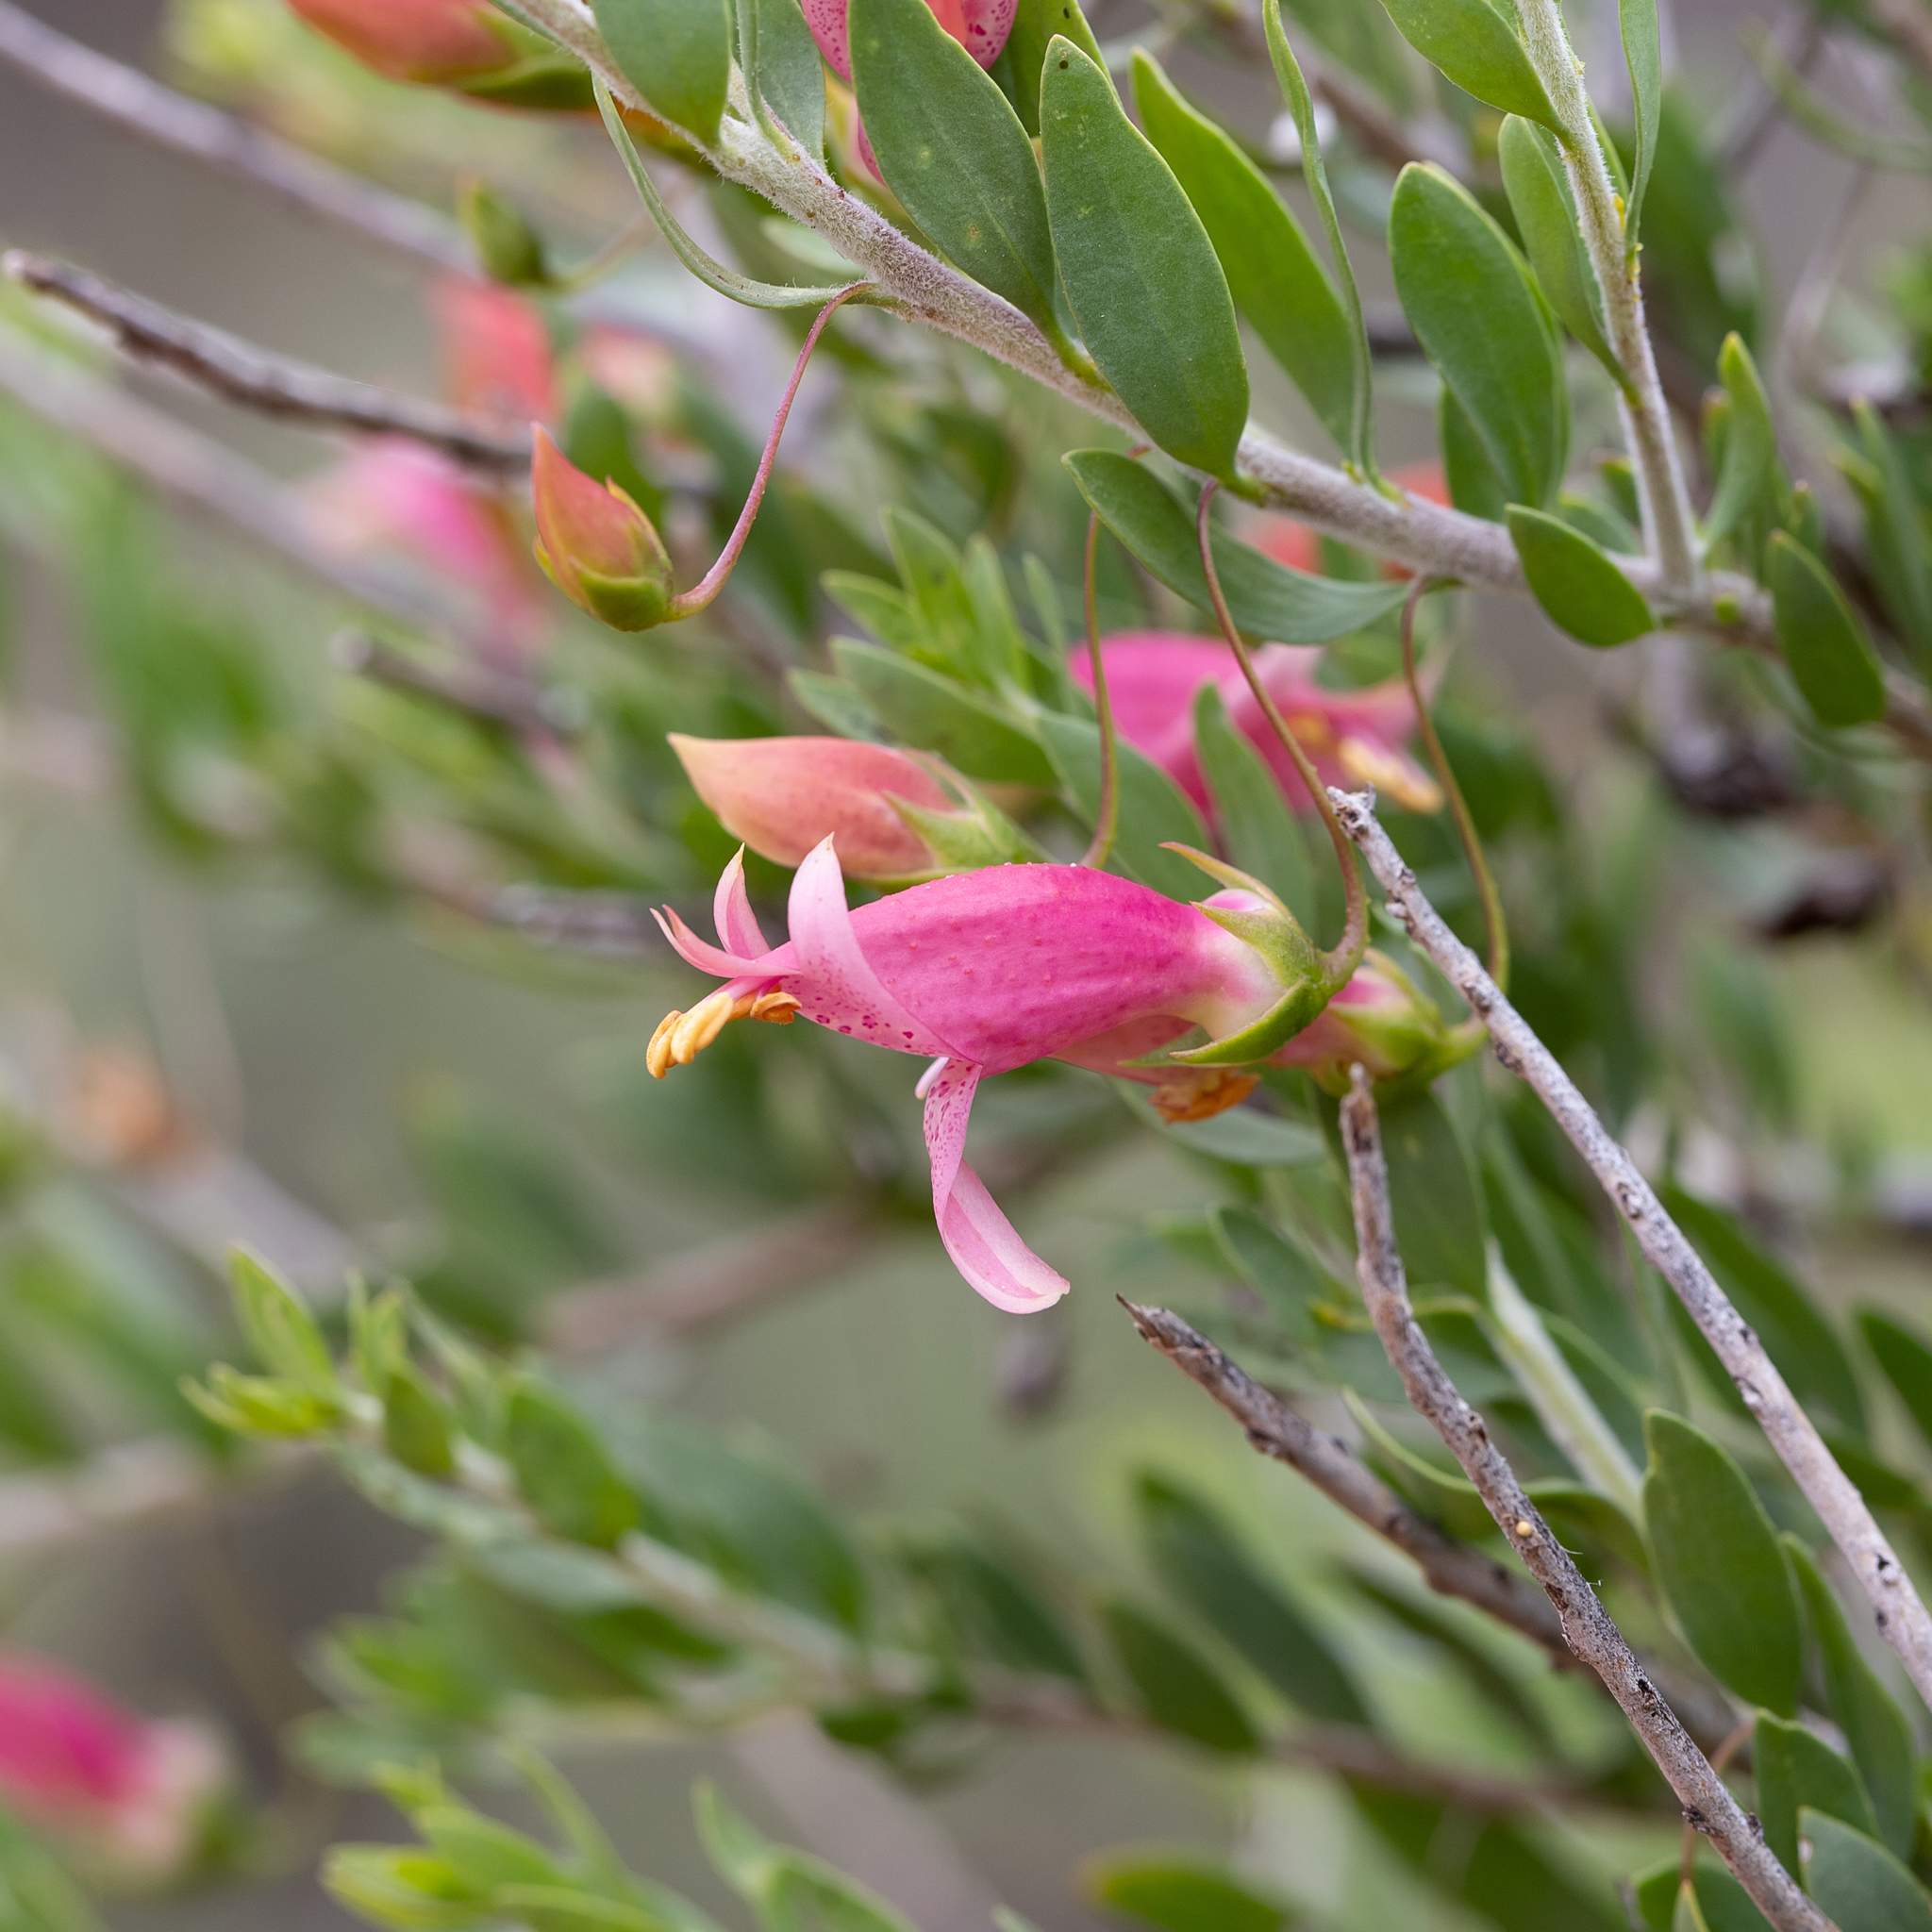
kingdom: Plantae
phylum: Tracheophyta
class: Magnoliopsida
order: Lamiales
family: Scrophulariaceae
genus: Eremophila
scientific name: Eremophila maculata
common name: Fuchsiabush
